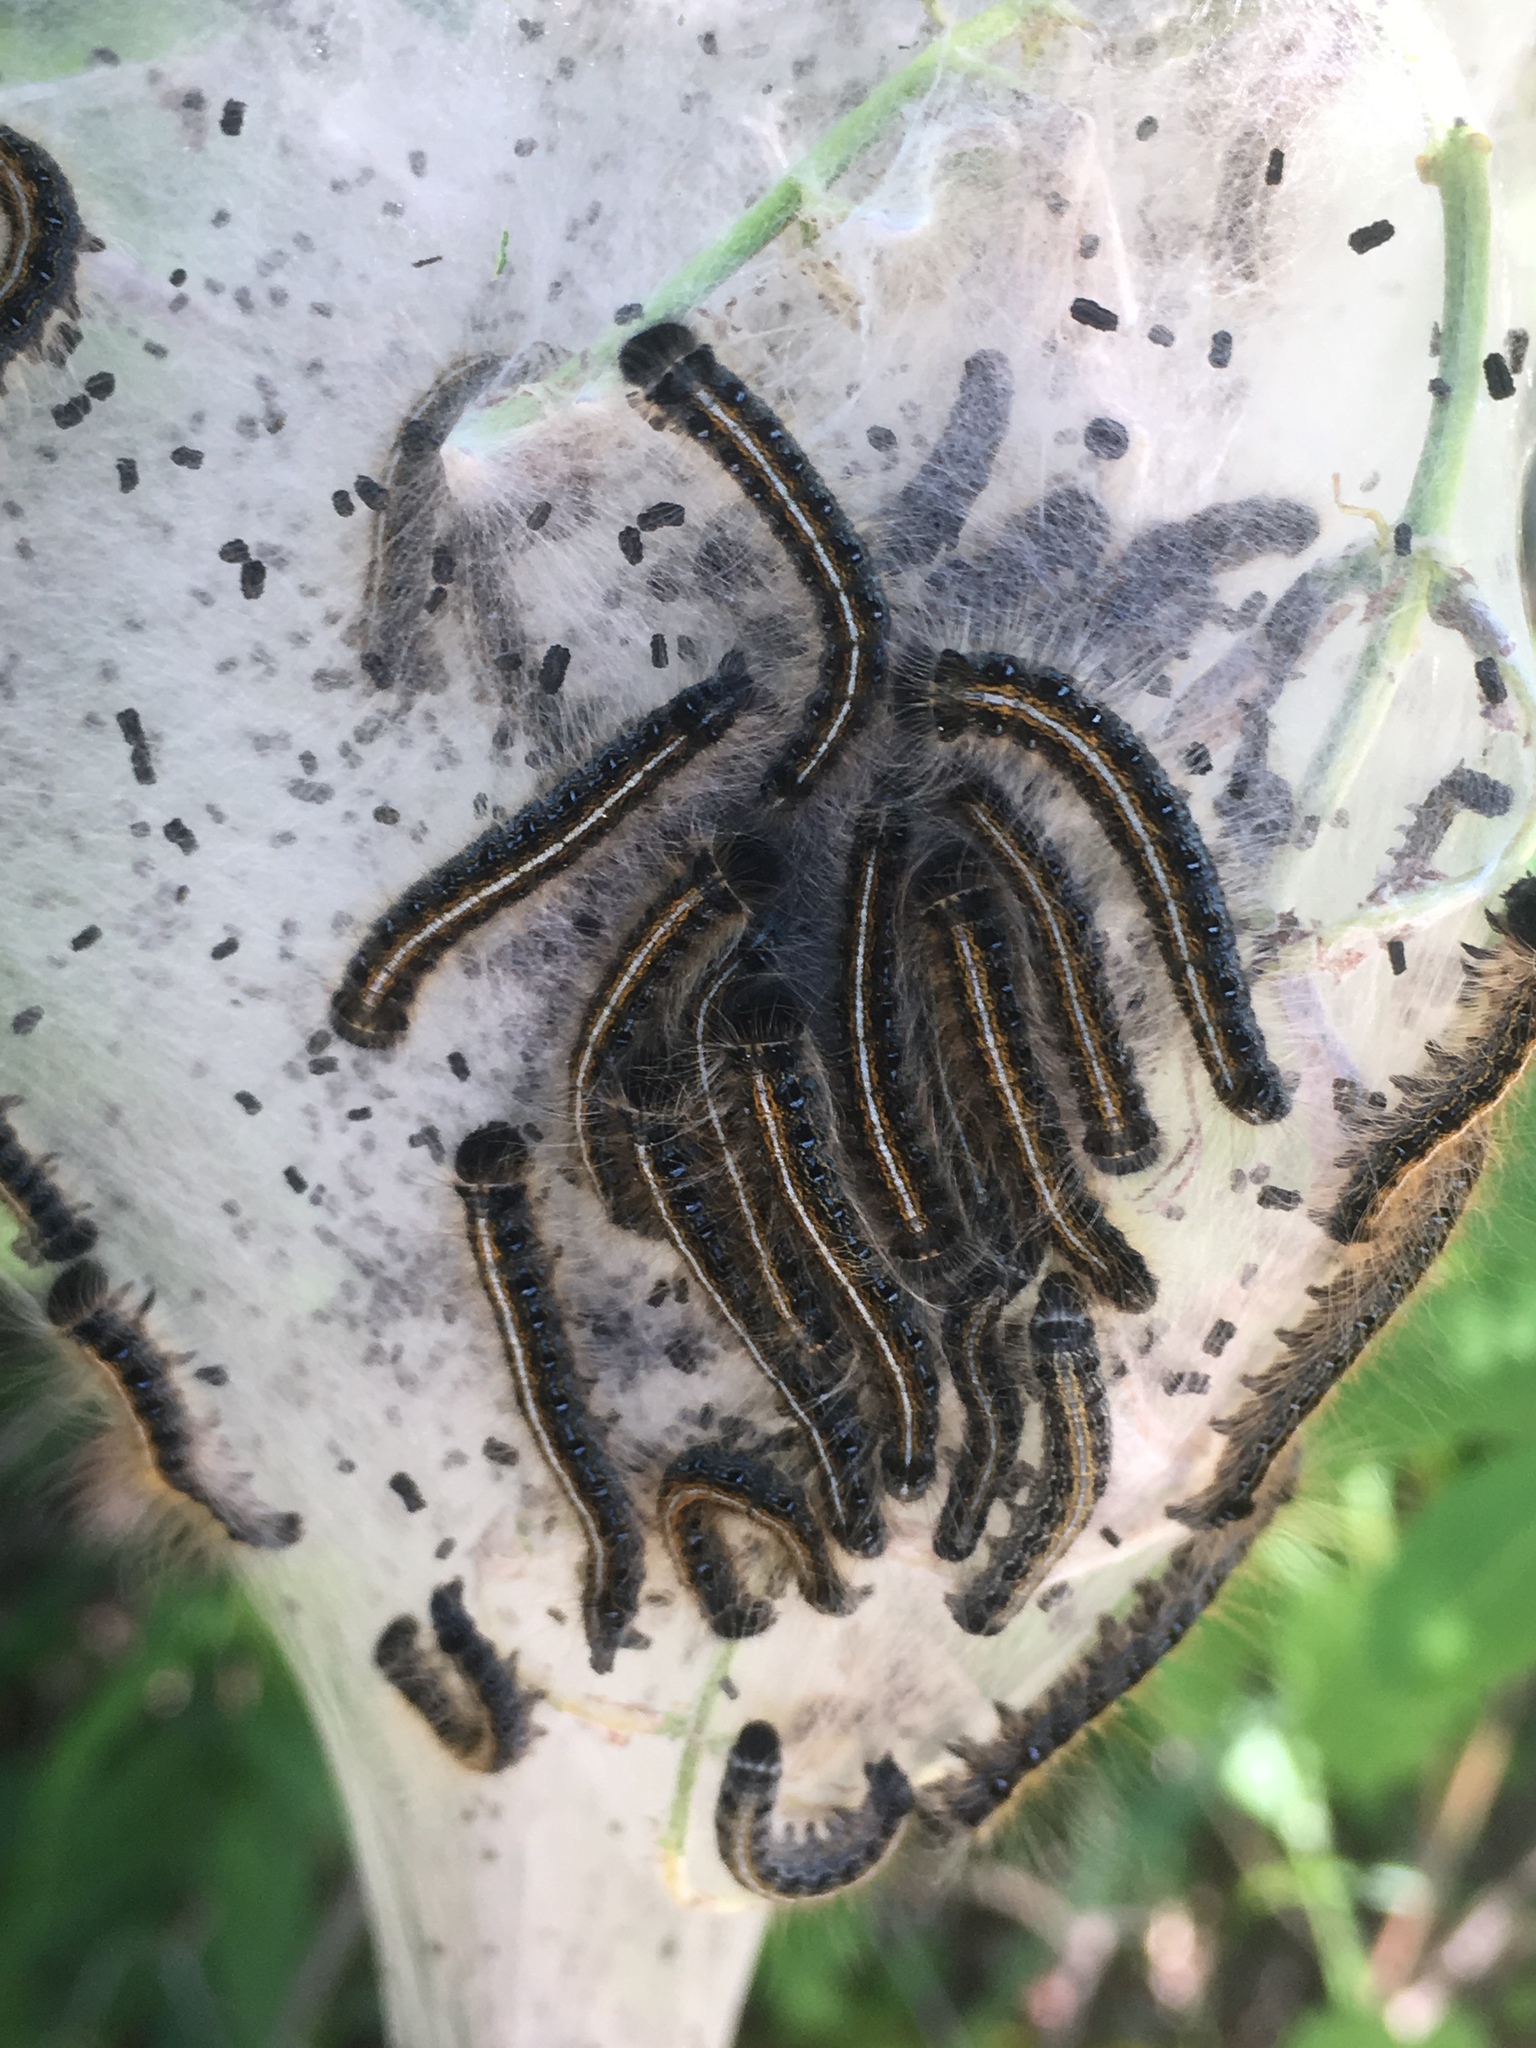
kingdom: Animalia
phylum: Arthropoda
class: Insecta
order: Lepidoptera
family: Lasiocampidae
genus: Malacosoma
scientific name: Malacosoma americana
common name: Eastern tent caterpillar moth
